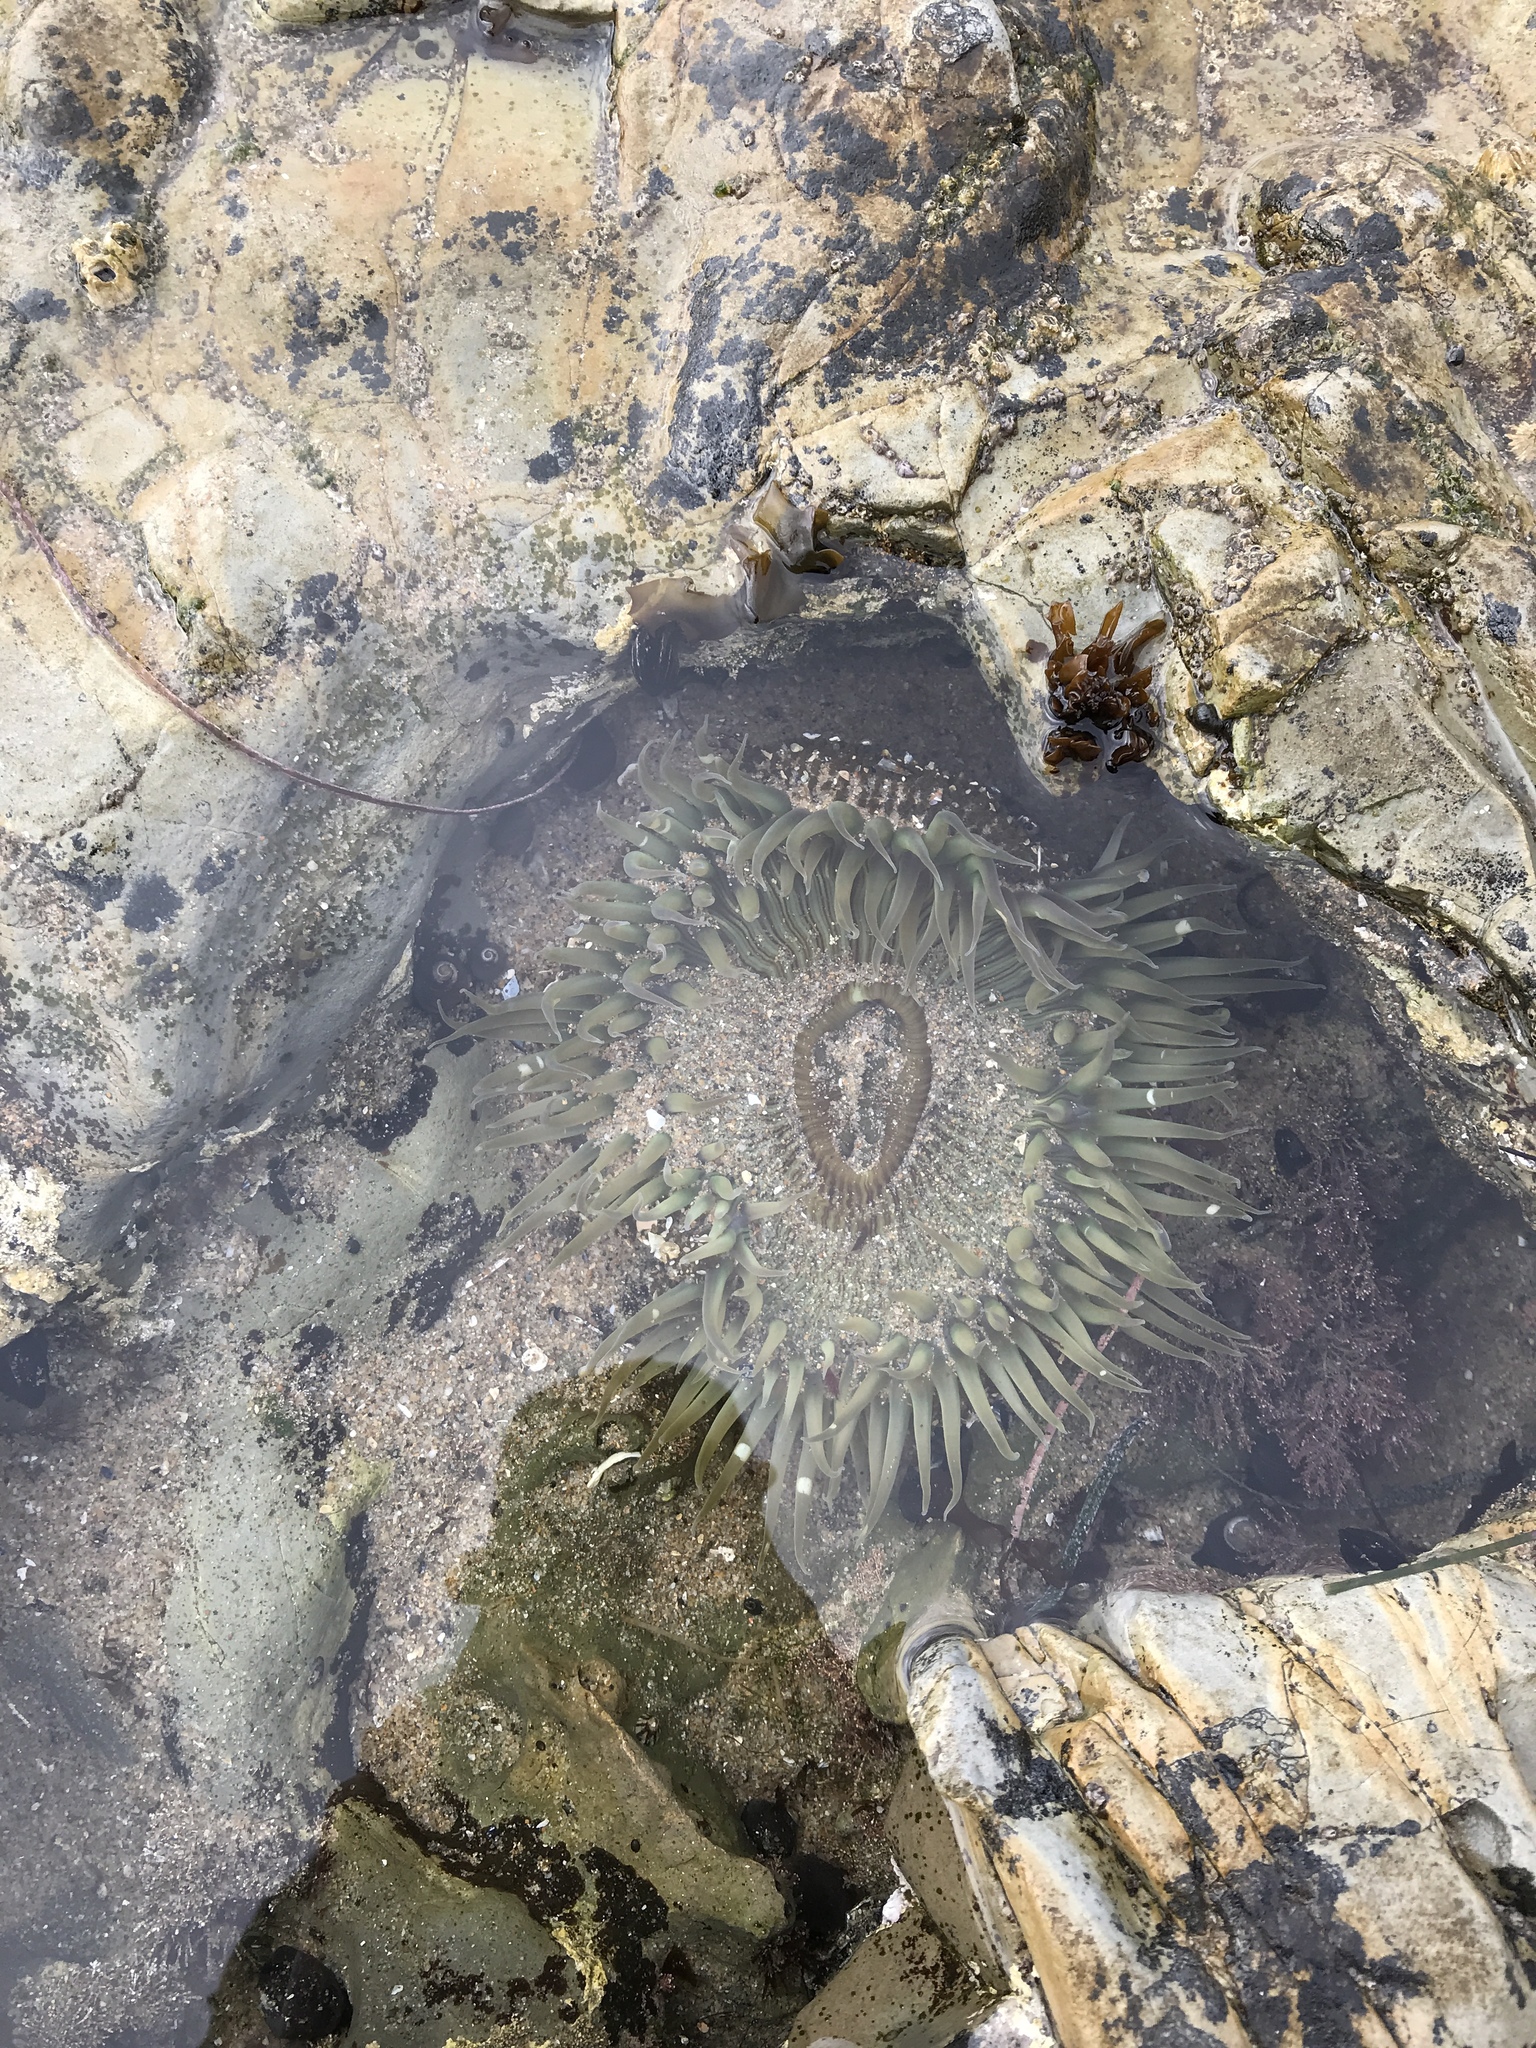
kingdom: Animalia
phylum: Cnidaria
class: Anthozoa
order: Actiniaria
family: Actiniidae
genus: Anthopleura
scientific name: Anthopleura sola
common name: Sun anemone
